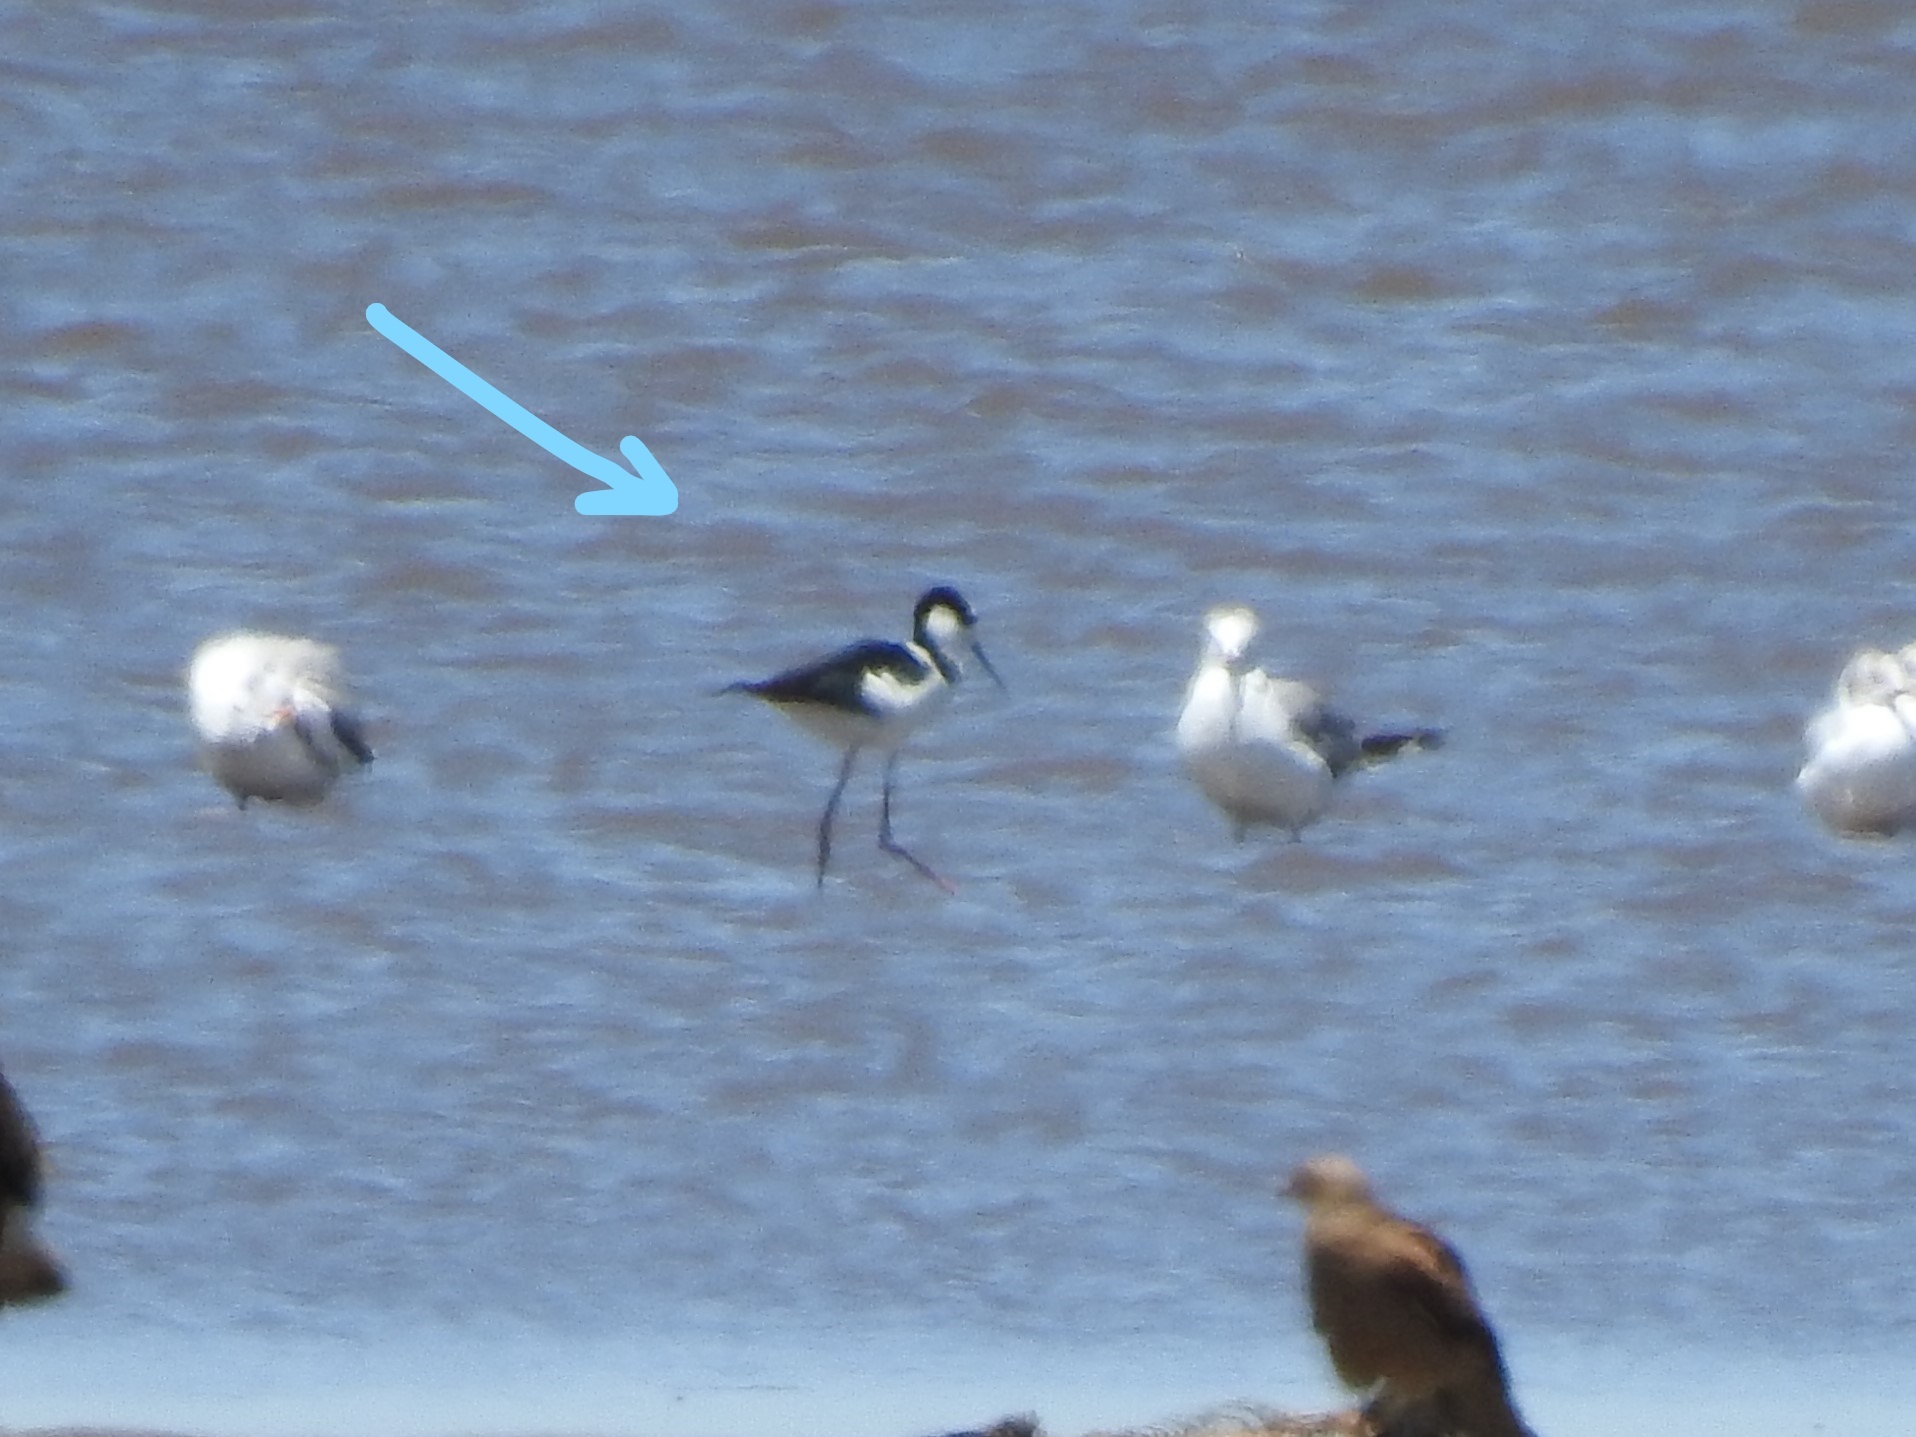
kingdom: Animalia
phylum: Chordata
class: Aves
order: Charadriiformes
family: Recurvirostridae
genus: Himantopus
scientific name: Himantopus mexicanus
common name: Black-necked stilt
